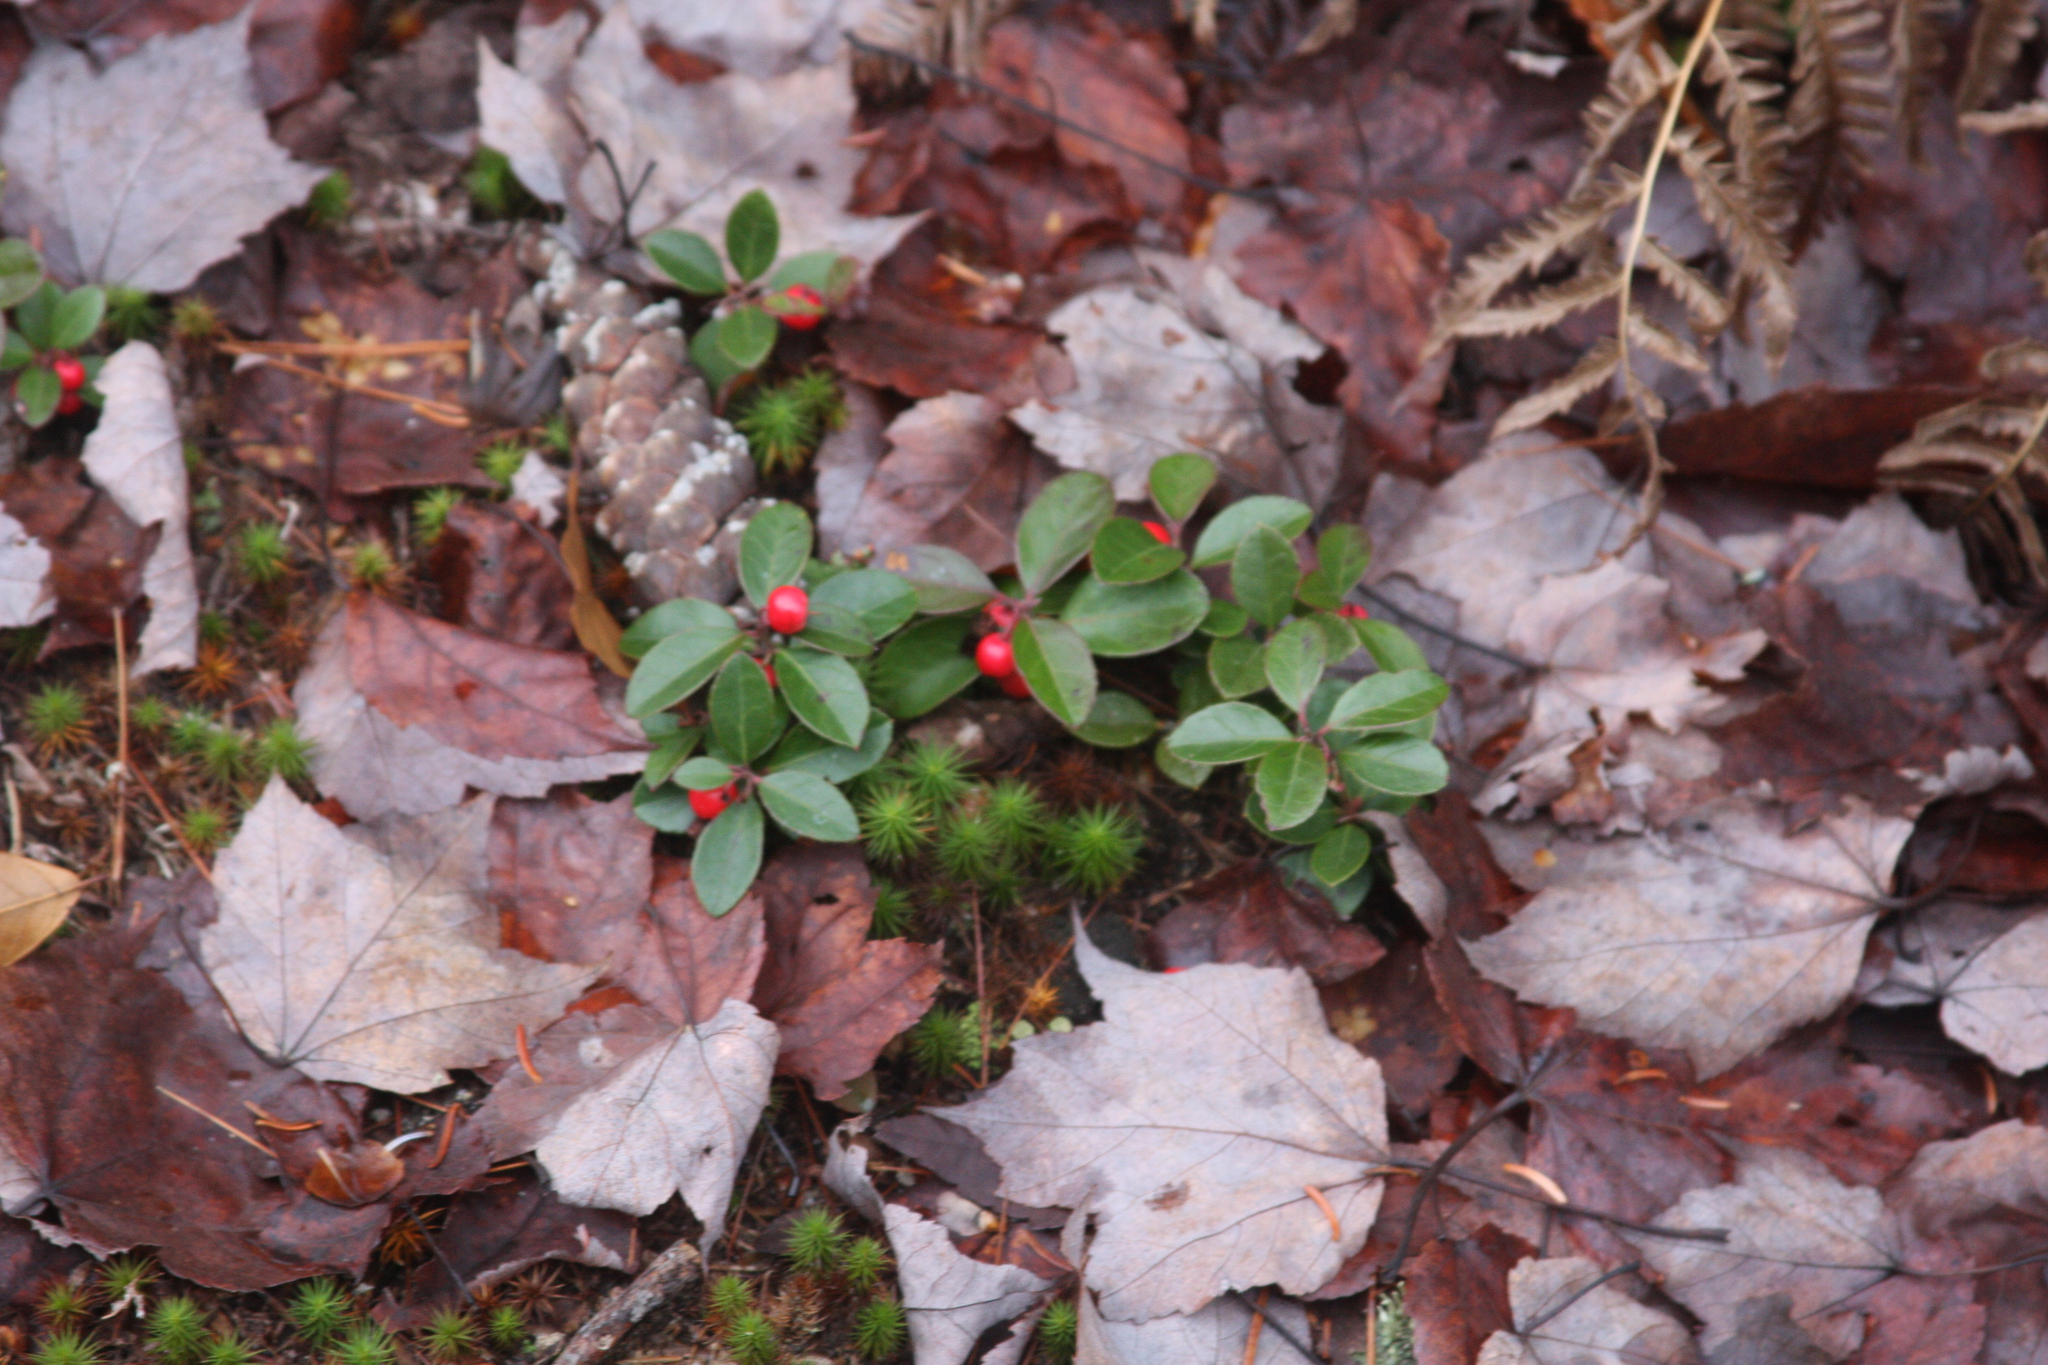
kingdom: Plantae
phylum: Tracheophyta
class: Magnoliopsida
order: Ericales
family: Ericaceae
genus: Gaultheria
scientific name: Gaultheria procumbens
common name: Checkerberry
